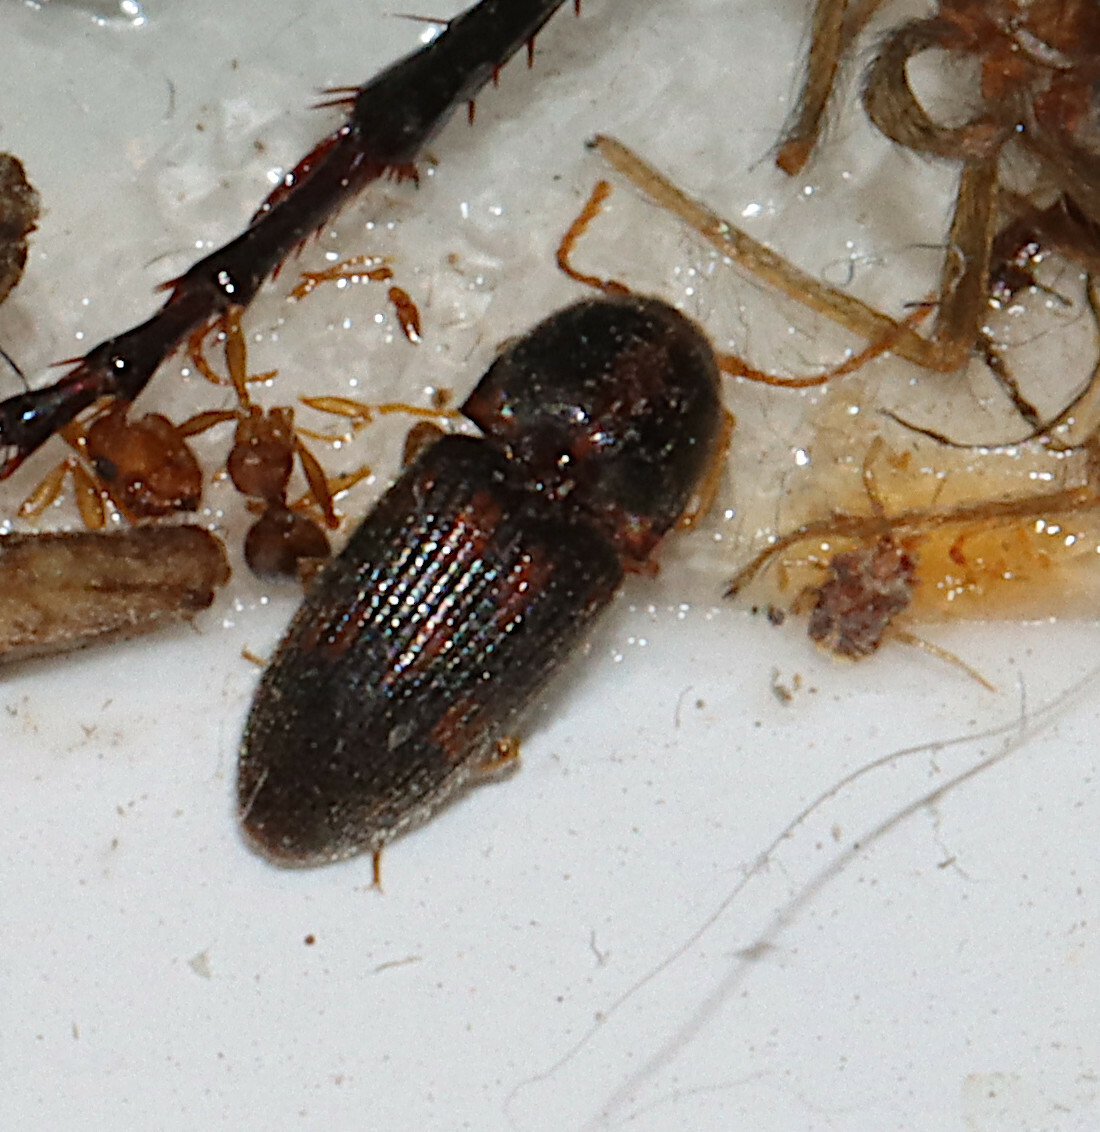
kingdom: Animalia
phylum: Arthropoda
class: Insecta
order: Coleoptera
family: Elateridae
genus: Monocrepidius
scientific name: Monocrepidius bellus
